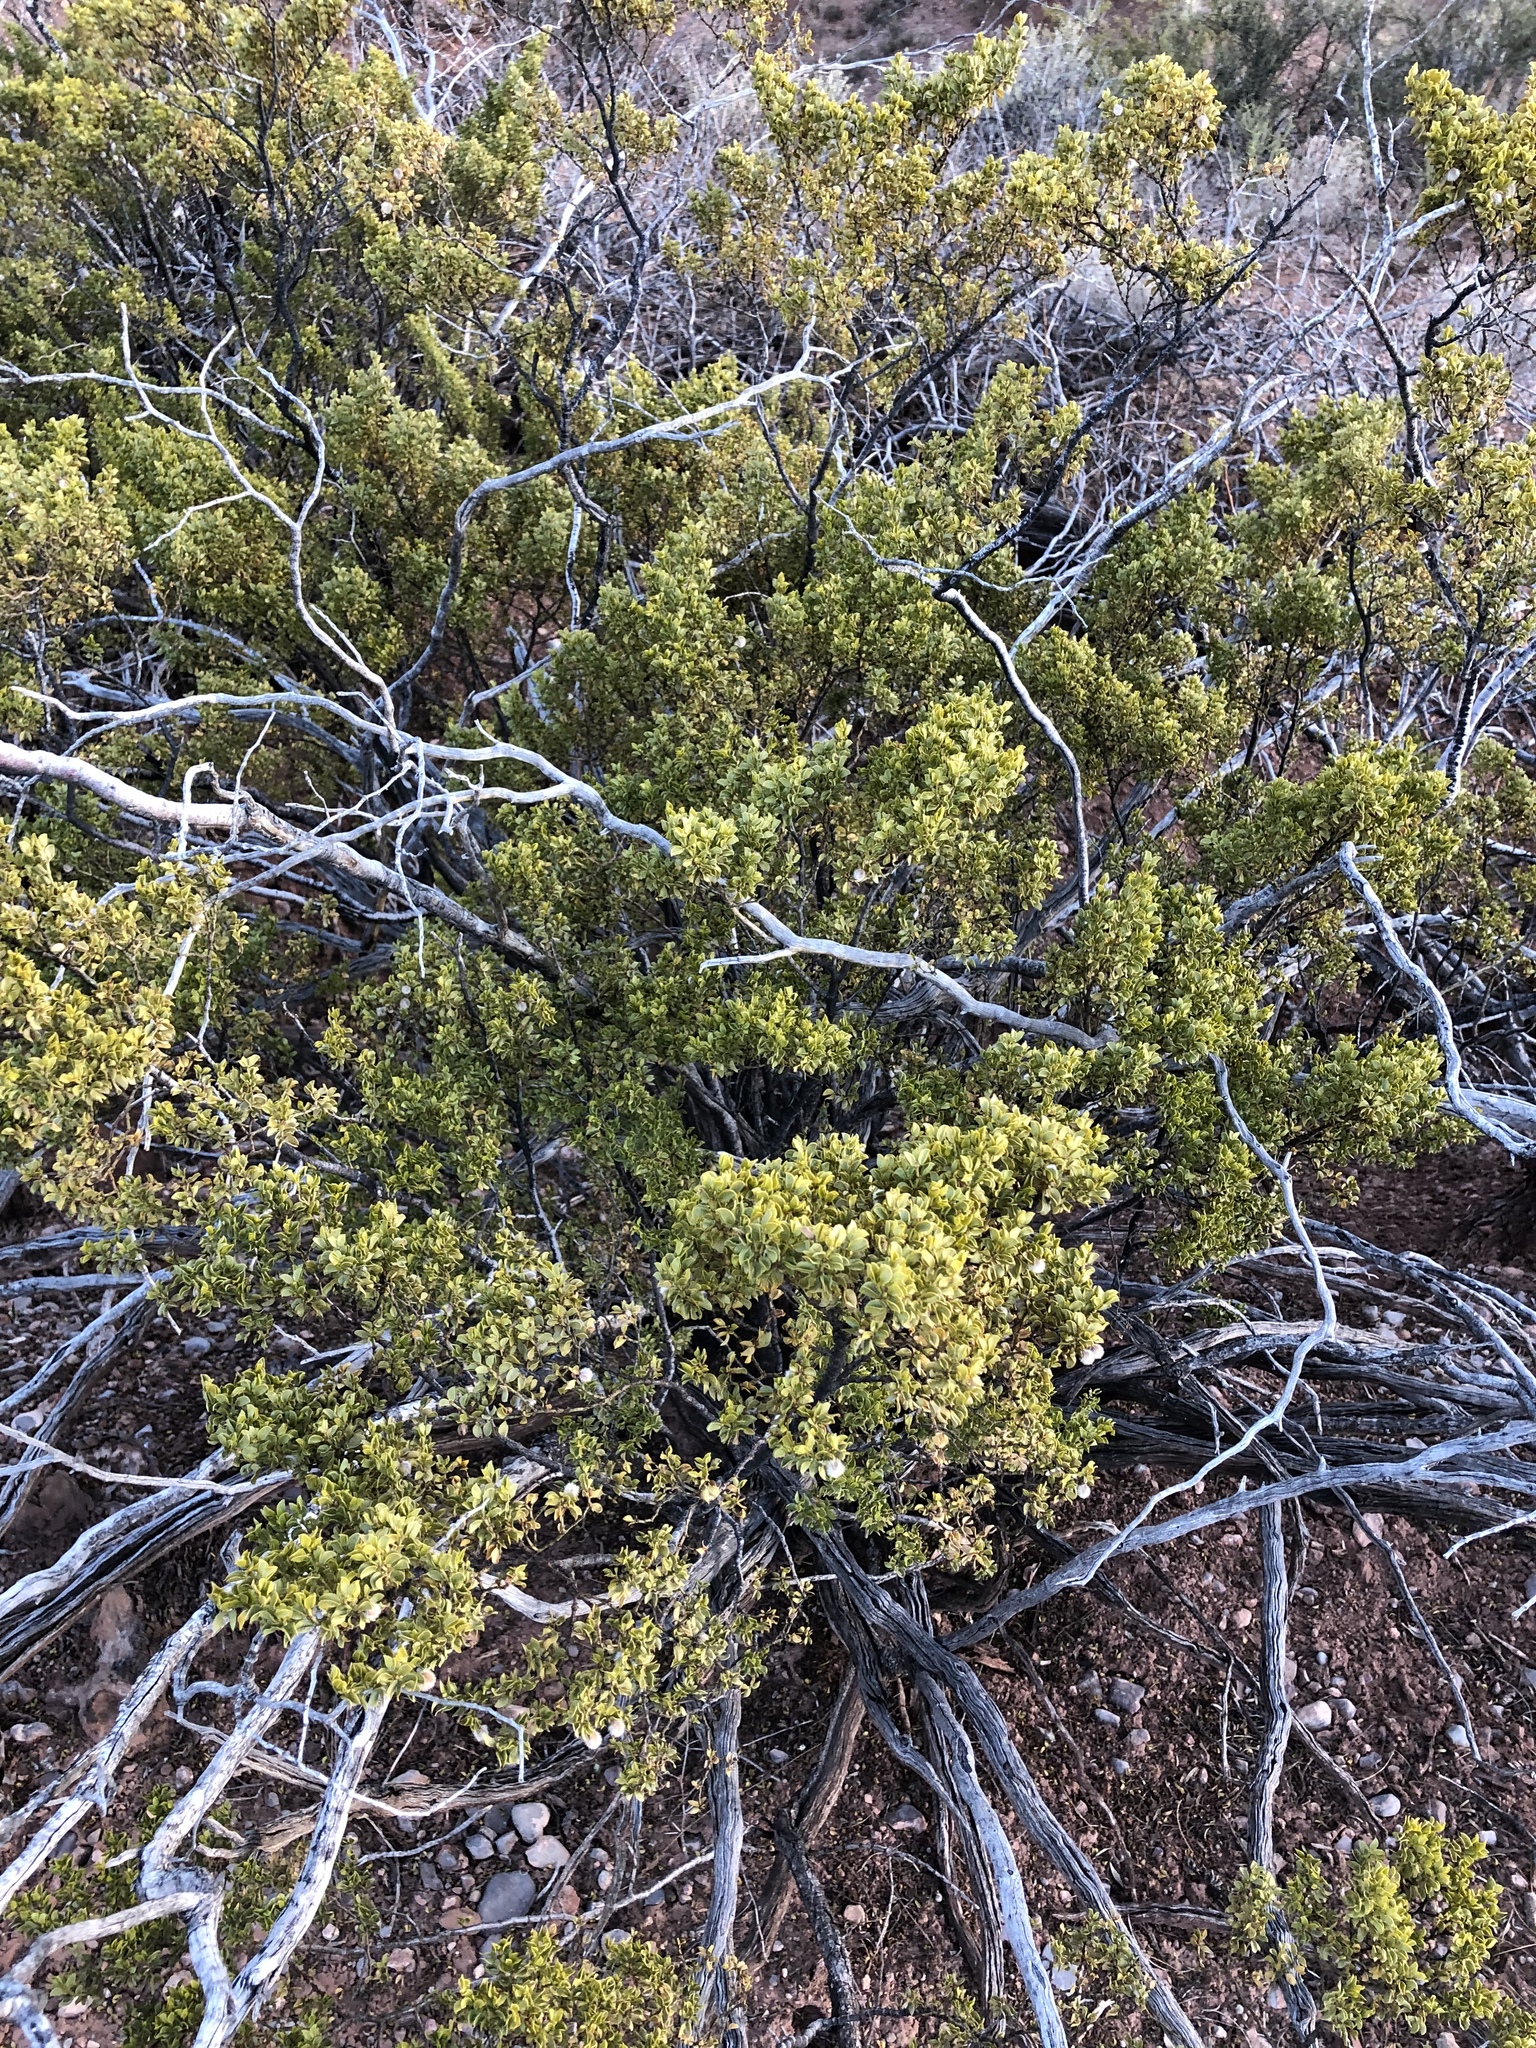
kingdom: Plantae
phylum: Tracheophyta
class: Magnoliopsida
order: Zygophyllales
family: Zygophyllaceae
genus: Larrea
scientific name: Larrea tridentata
